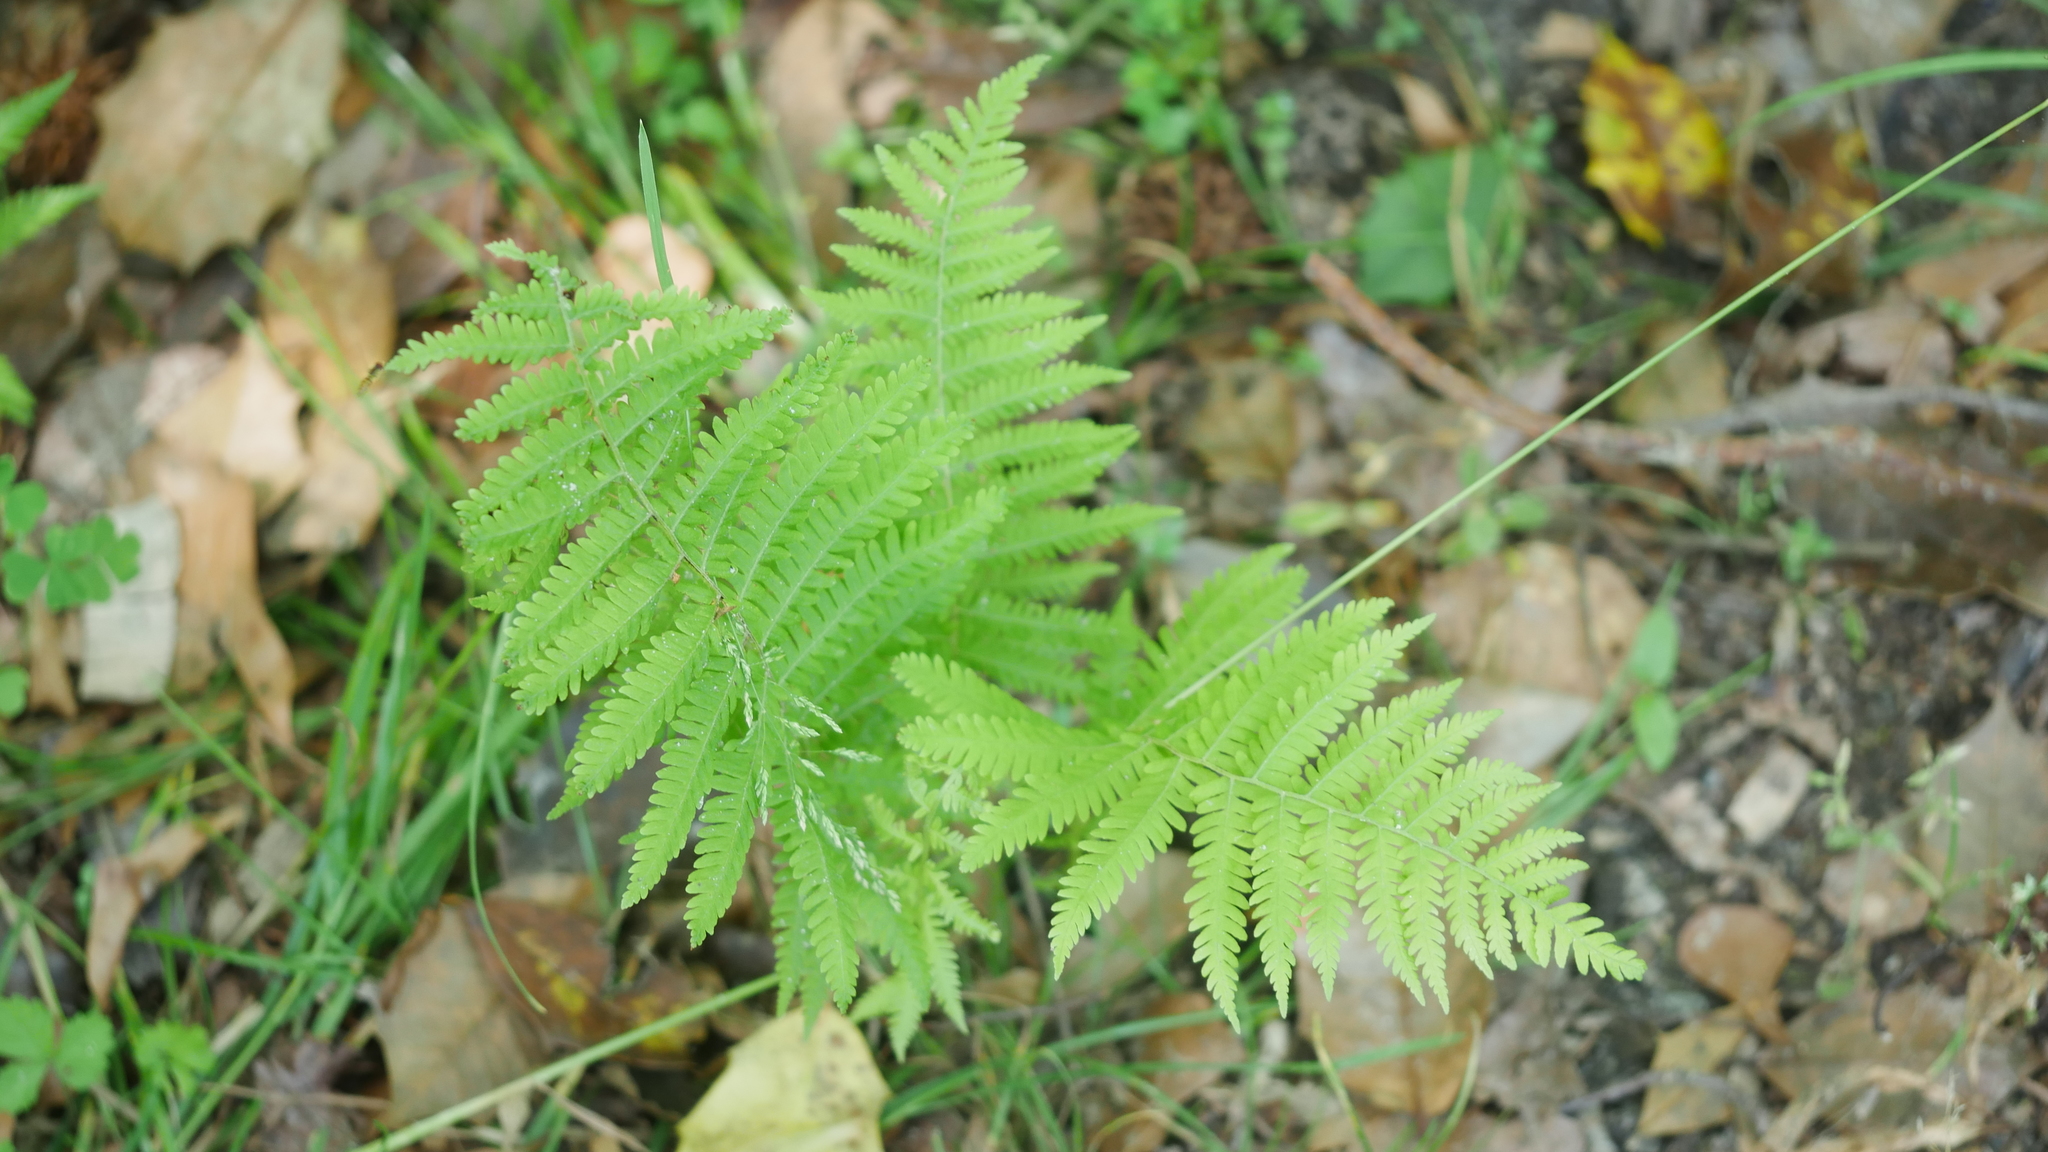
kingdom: Plantae
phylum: Tracheophyta
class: Polypodiopsida
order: Polypodiales
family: Thelypteridaceae
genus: Amauropelta
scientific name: Amauropelta noveboracensis
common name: New york fern
